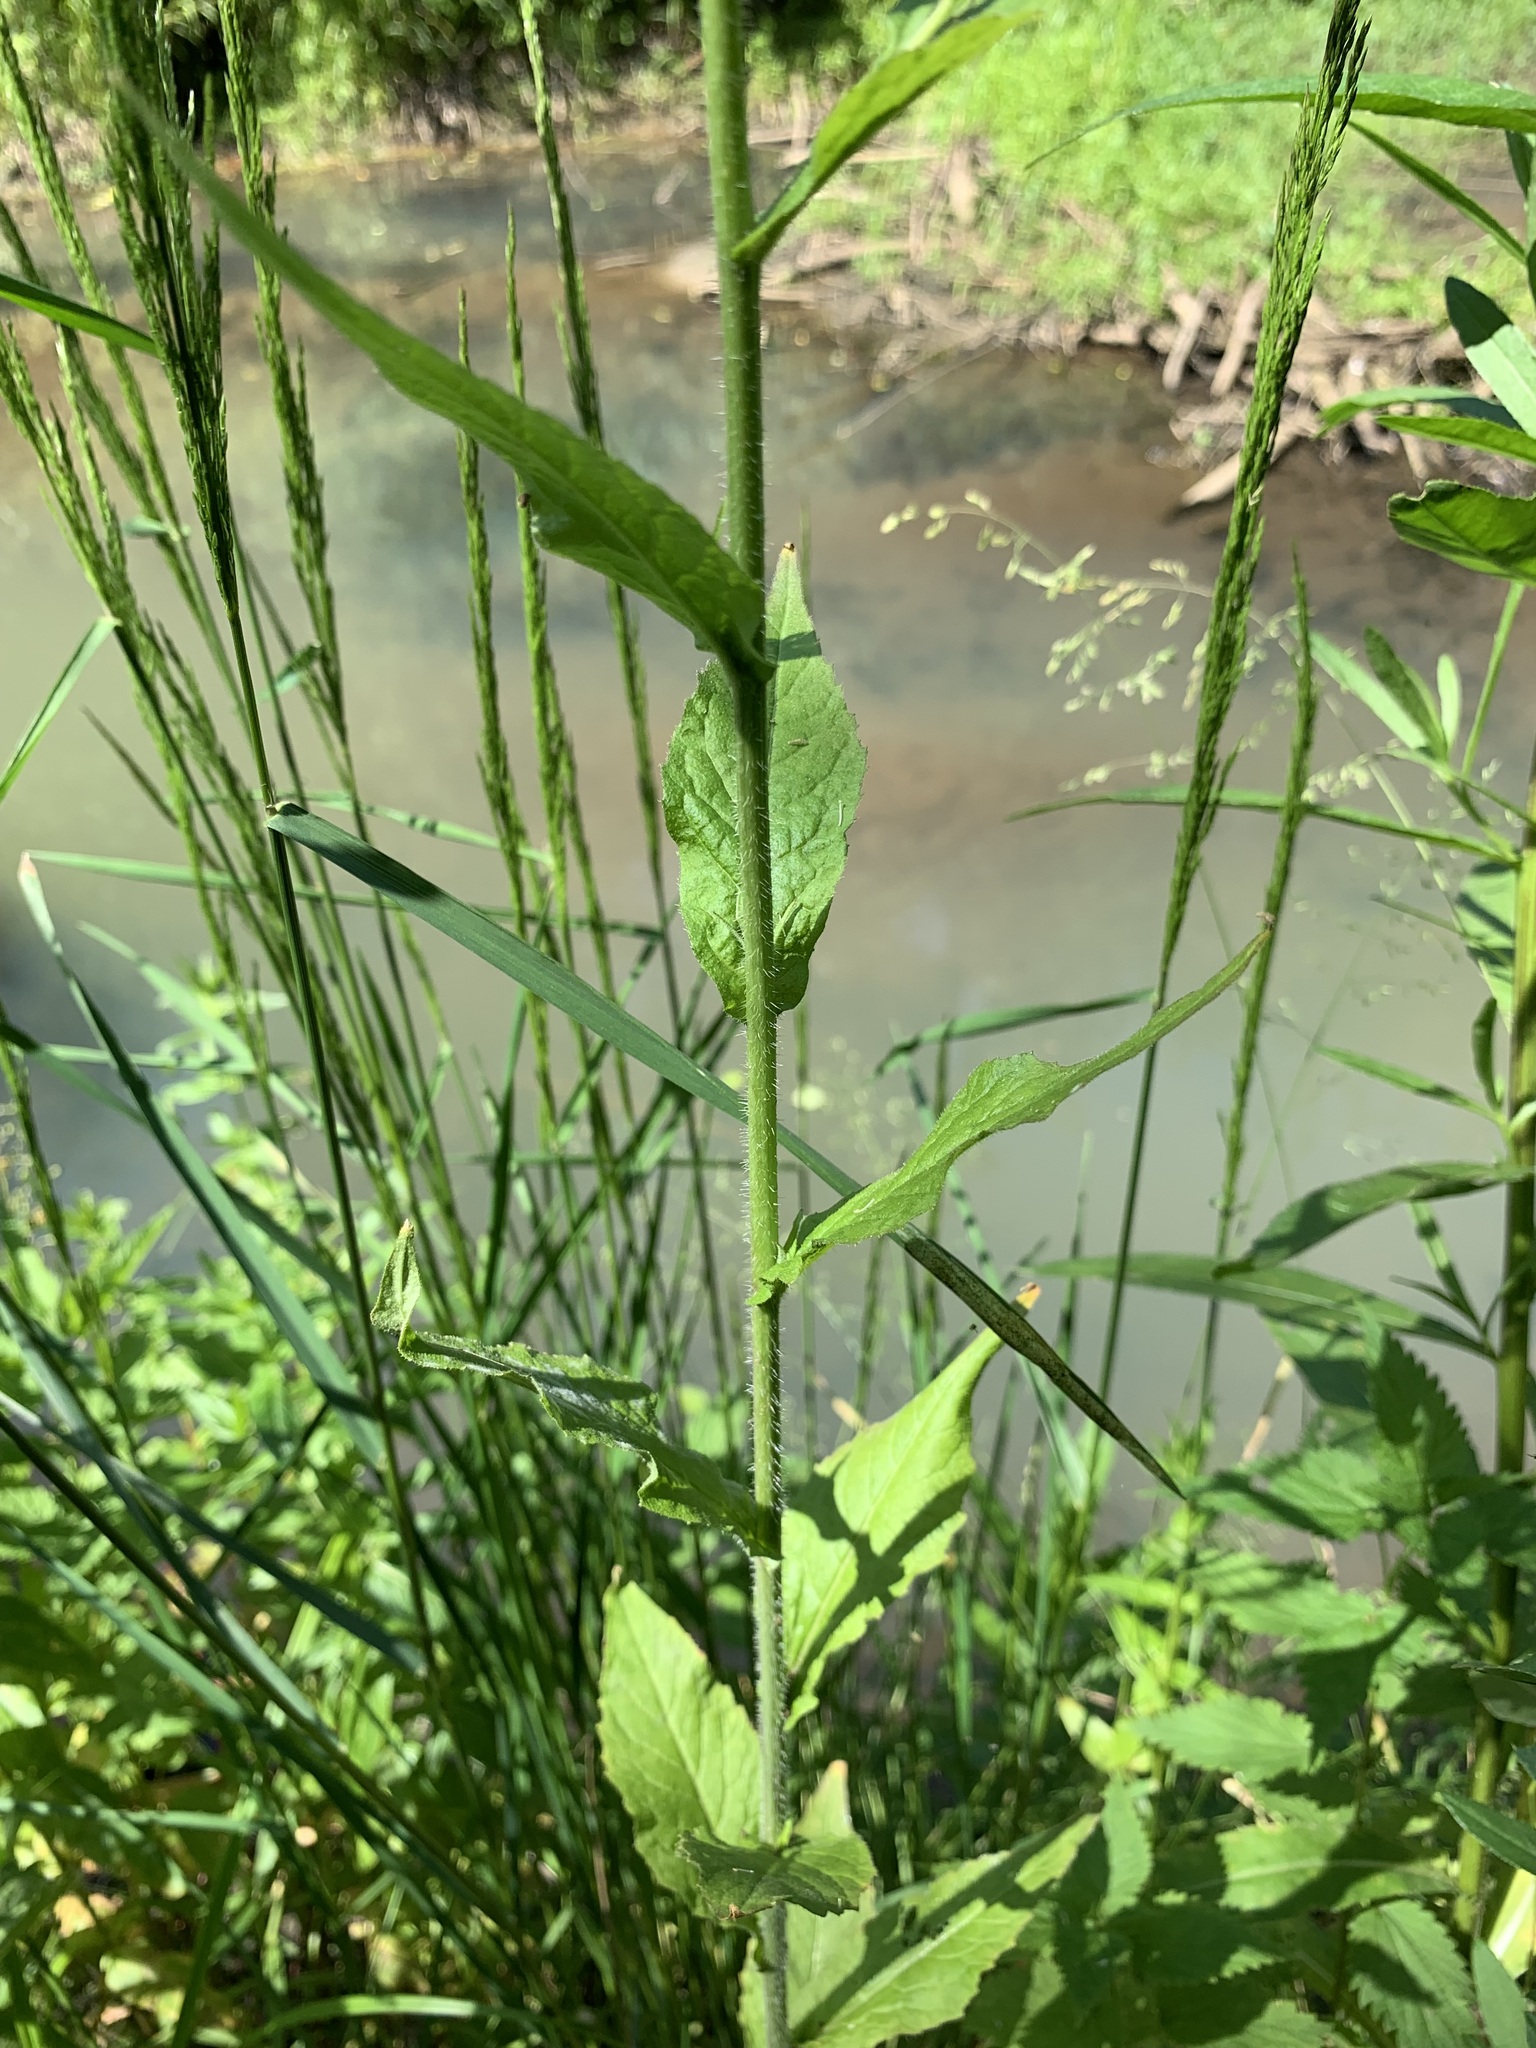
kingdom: Plantae
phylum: Tracheophyta
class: Magnoliopsida
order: Brassicales
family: Brassicaceae
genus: Catolobus
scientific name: Catolobus pendulus
